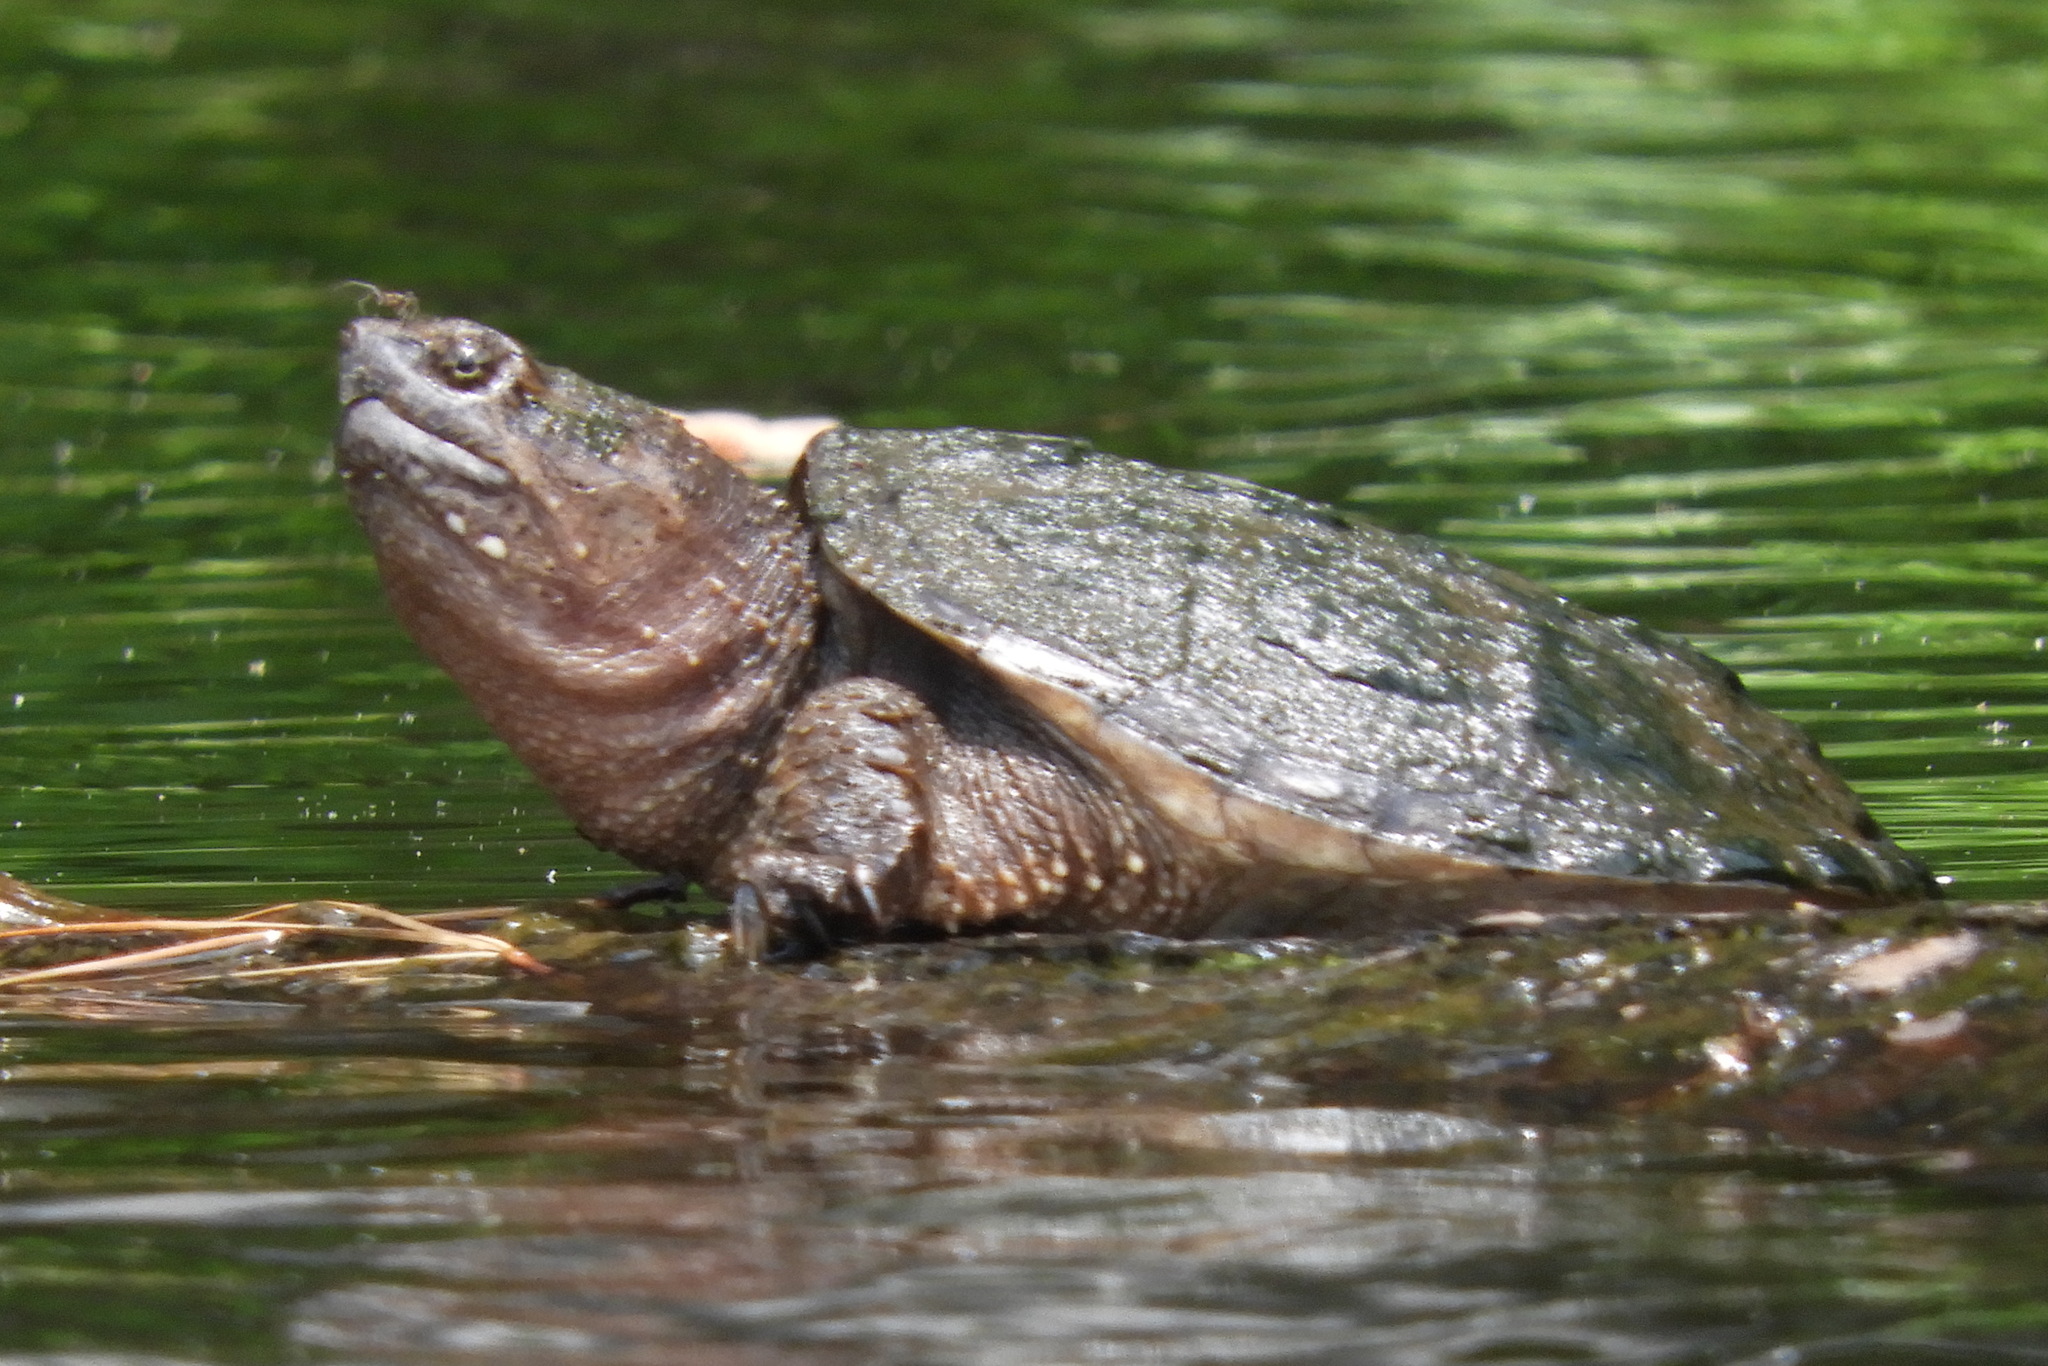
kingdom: Animalia
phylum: Chordata
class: Testudines
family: Chelydridae
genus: Chelydra
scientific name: Chelydra serpentina
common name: Common snapping turtle
